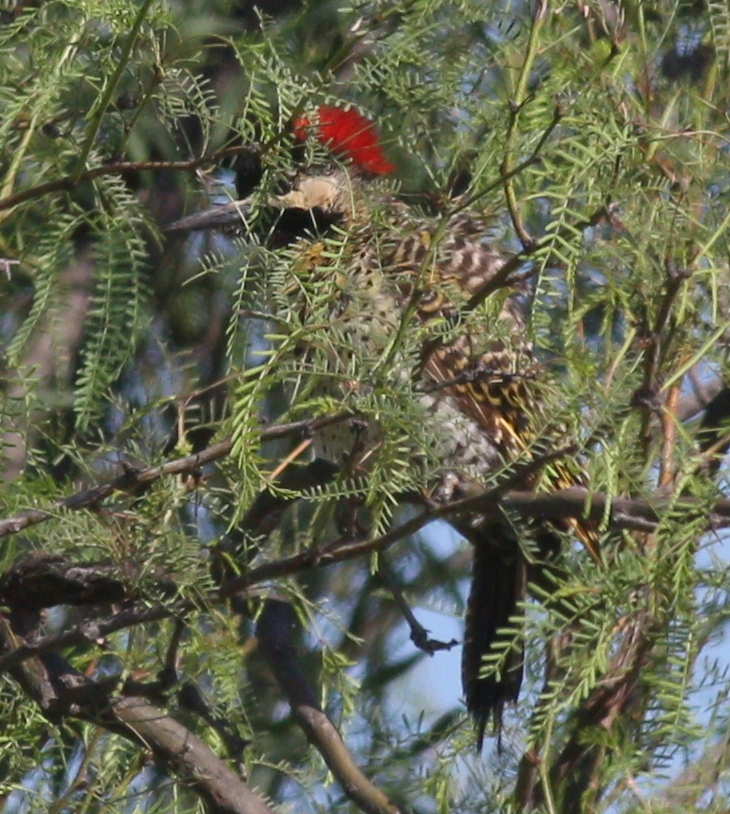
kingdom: Animalia
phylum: Chordata
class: Aves
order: Piciformes
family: Picidae
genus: Colaptes
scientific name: Colaptes melanochloros
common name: Green-barred woodpecker
